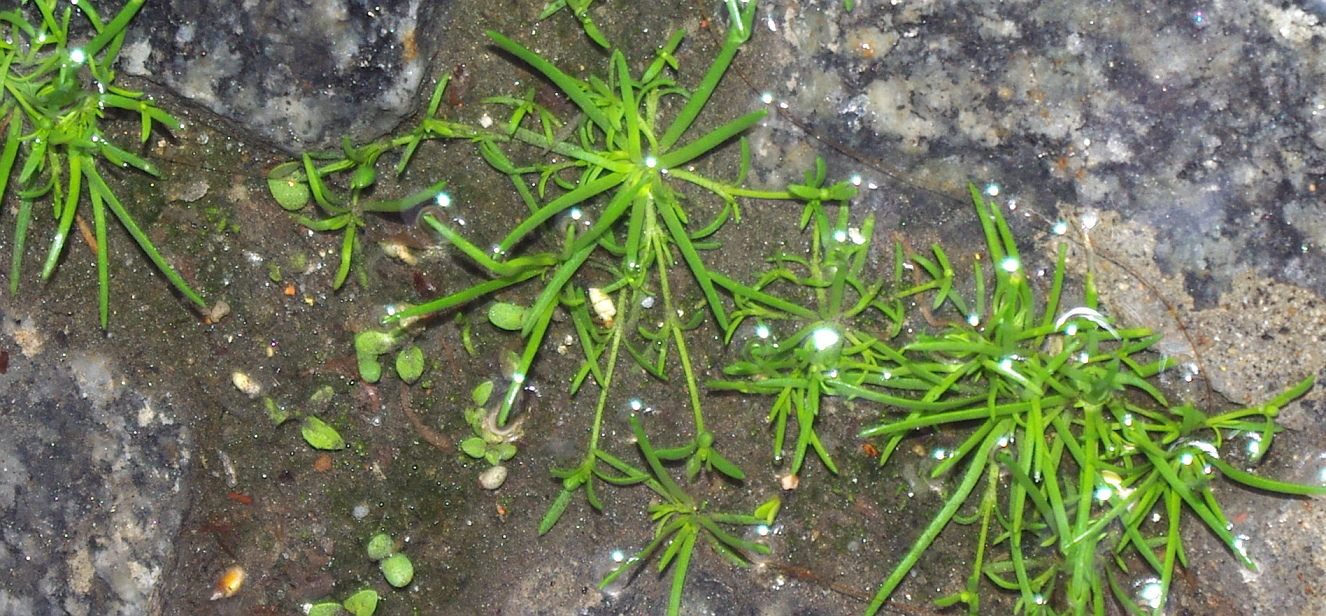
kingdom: Plantae
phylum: Tracheophyta
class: Magnoliopsida
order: Caryophyllales
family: Caryophyllaceae
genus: Sagina
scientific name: Sagina procumbens
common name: Procumbent pearlwort
